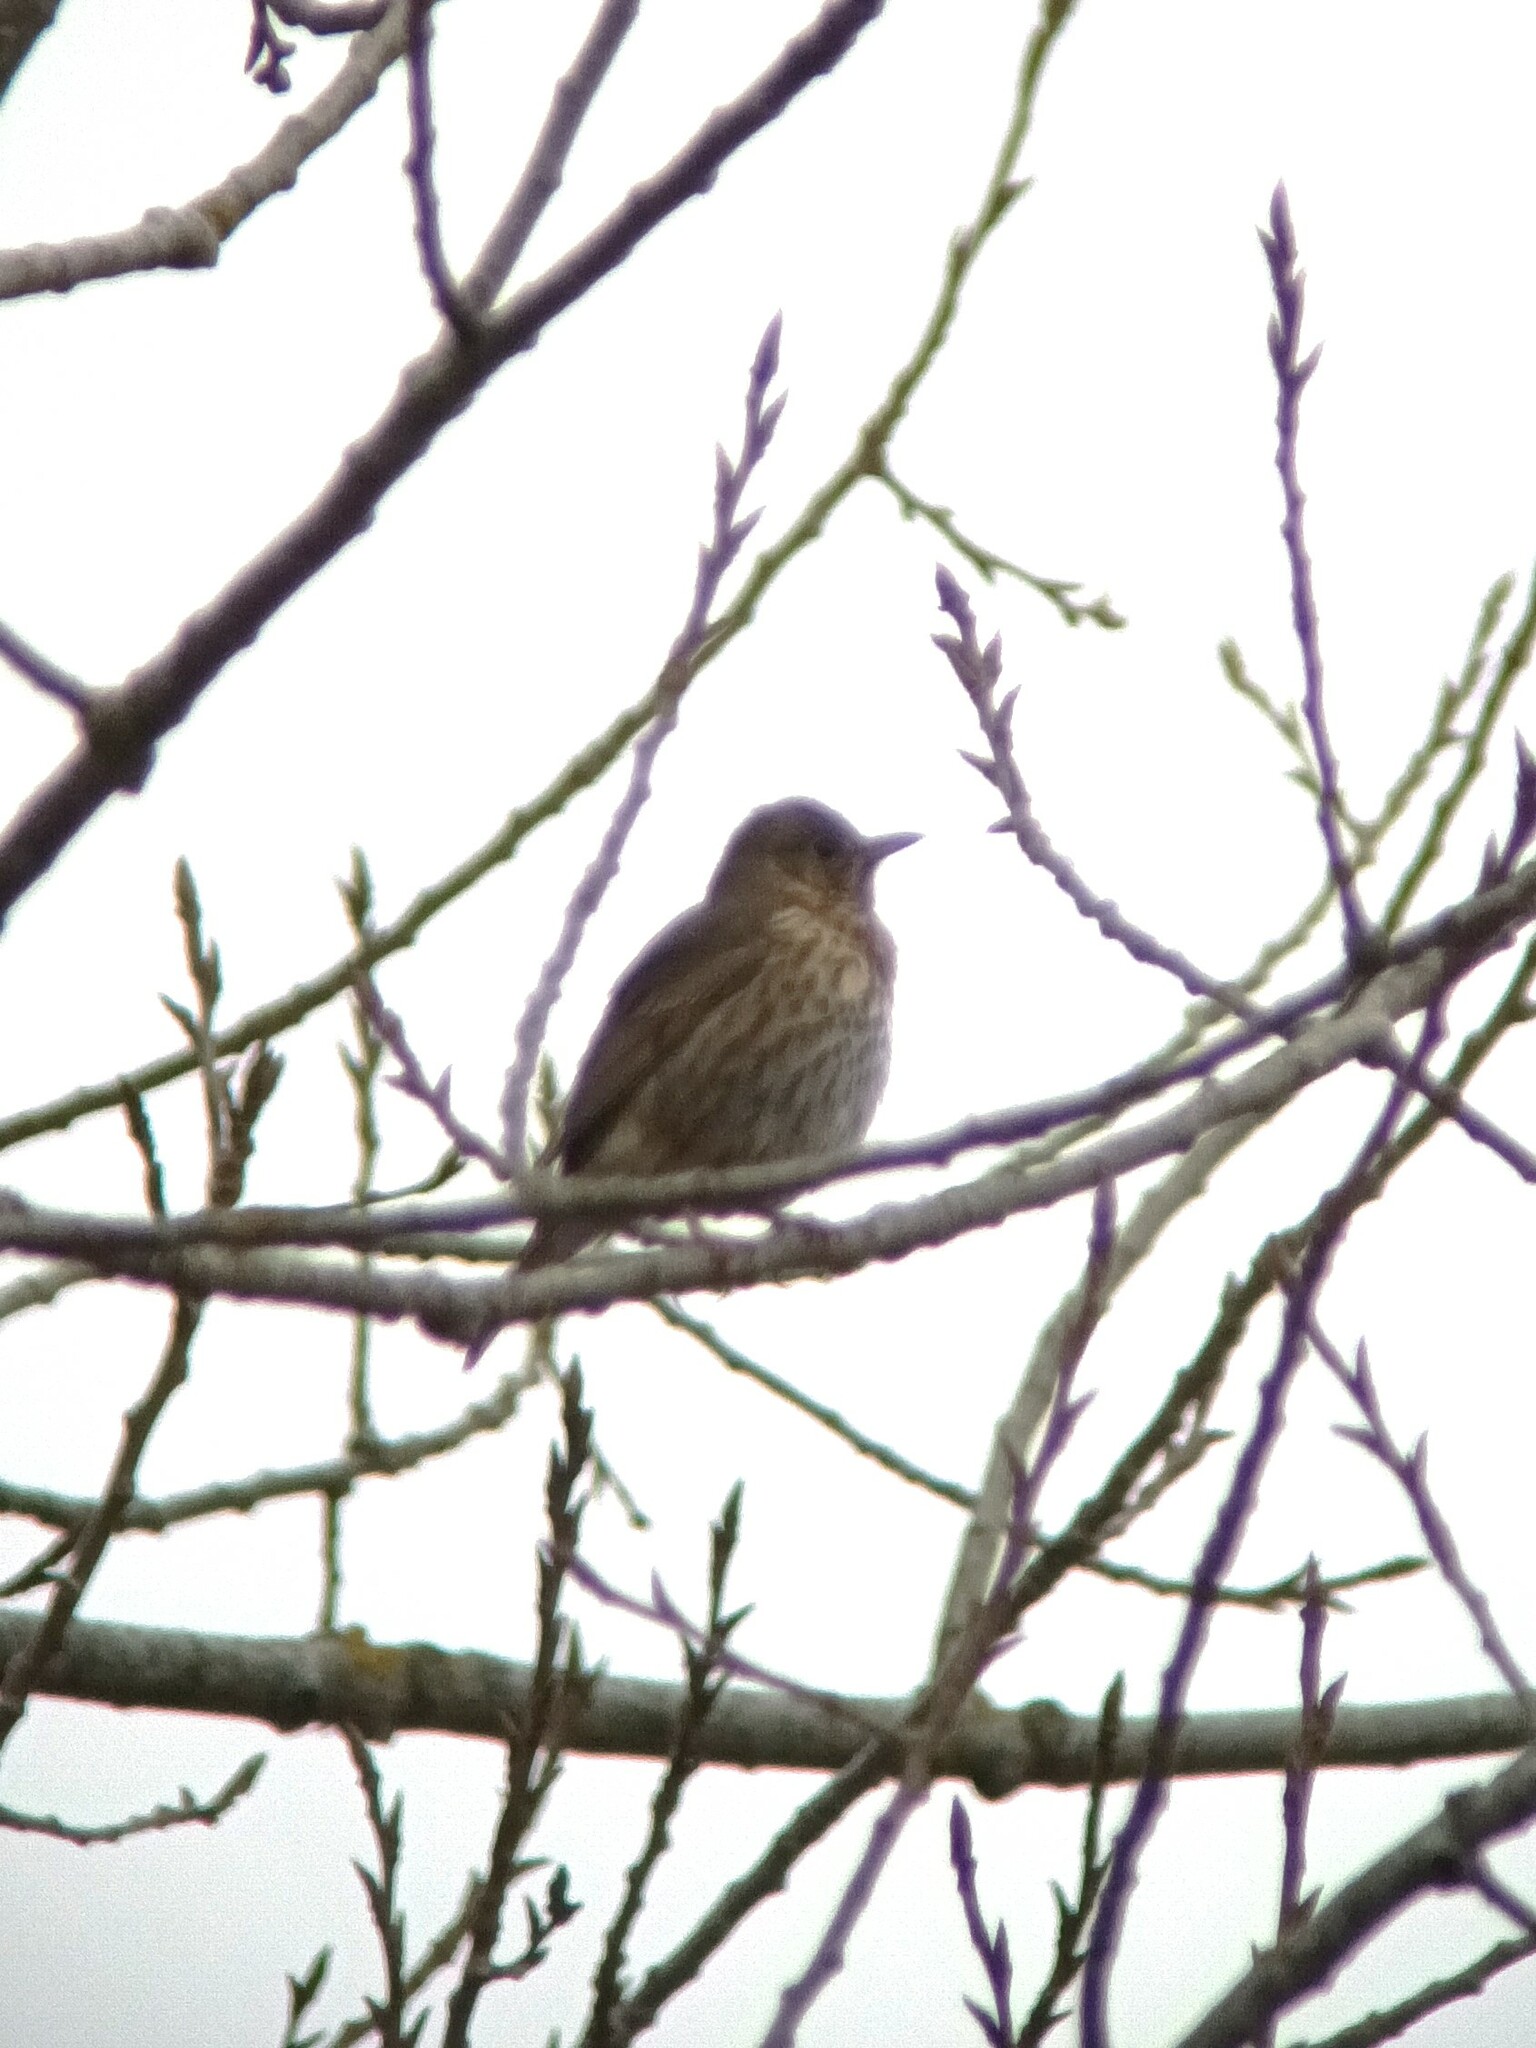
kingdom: Animalia
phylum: Chordata
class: Aves
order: Passeriformes
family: Turdidae
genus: Turdus
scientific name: Turdus philomelos
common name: Song thrush
